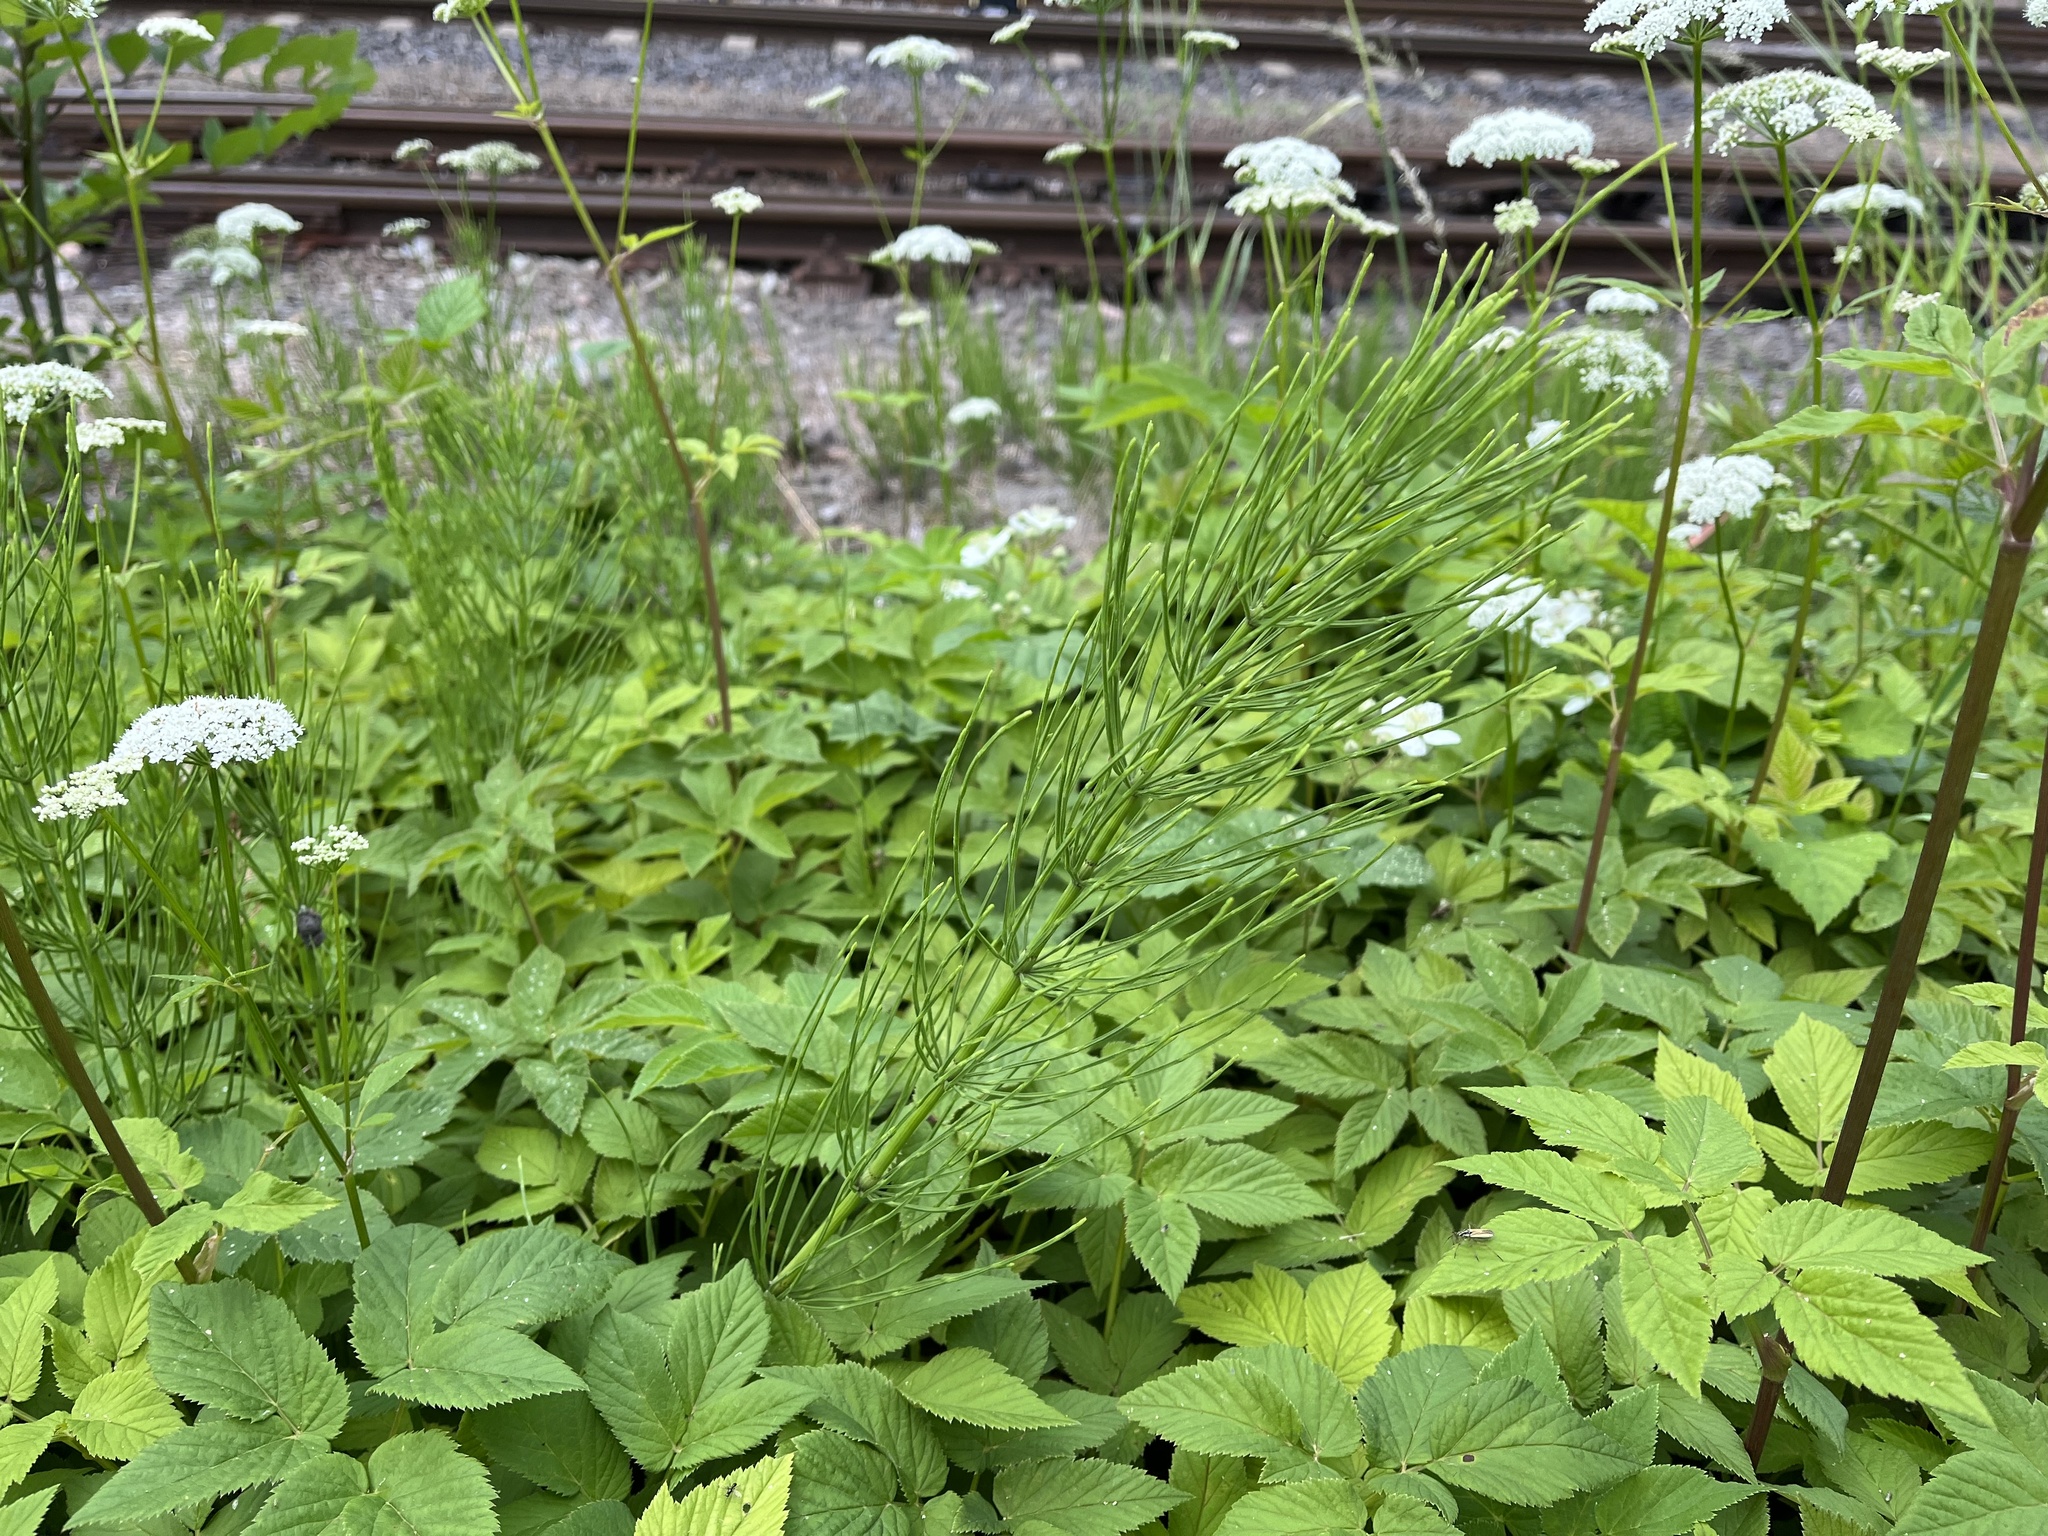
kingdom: Plantae
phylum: Tracheophyta
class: Polypodiopsida
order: Equisetales
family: Equisetaceae
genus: Equisetum
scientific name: Equisetum arvense
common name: Field horsetail
